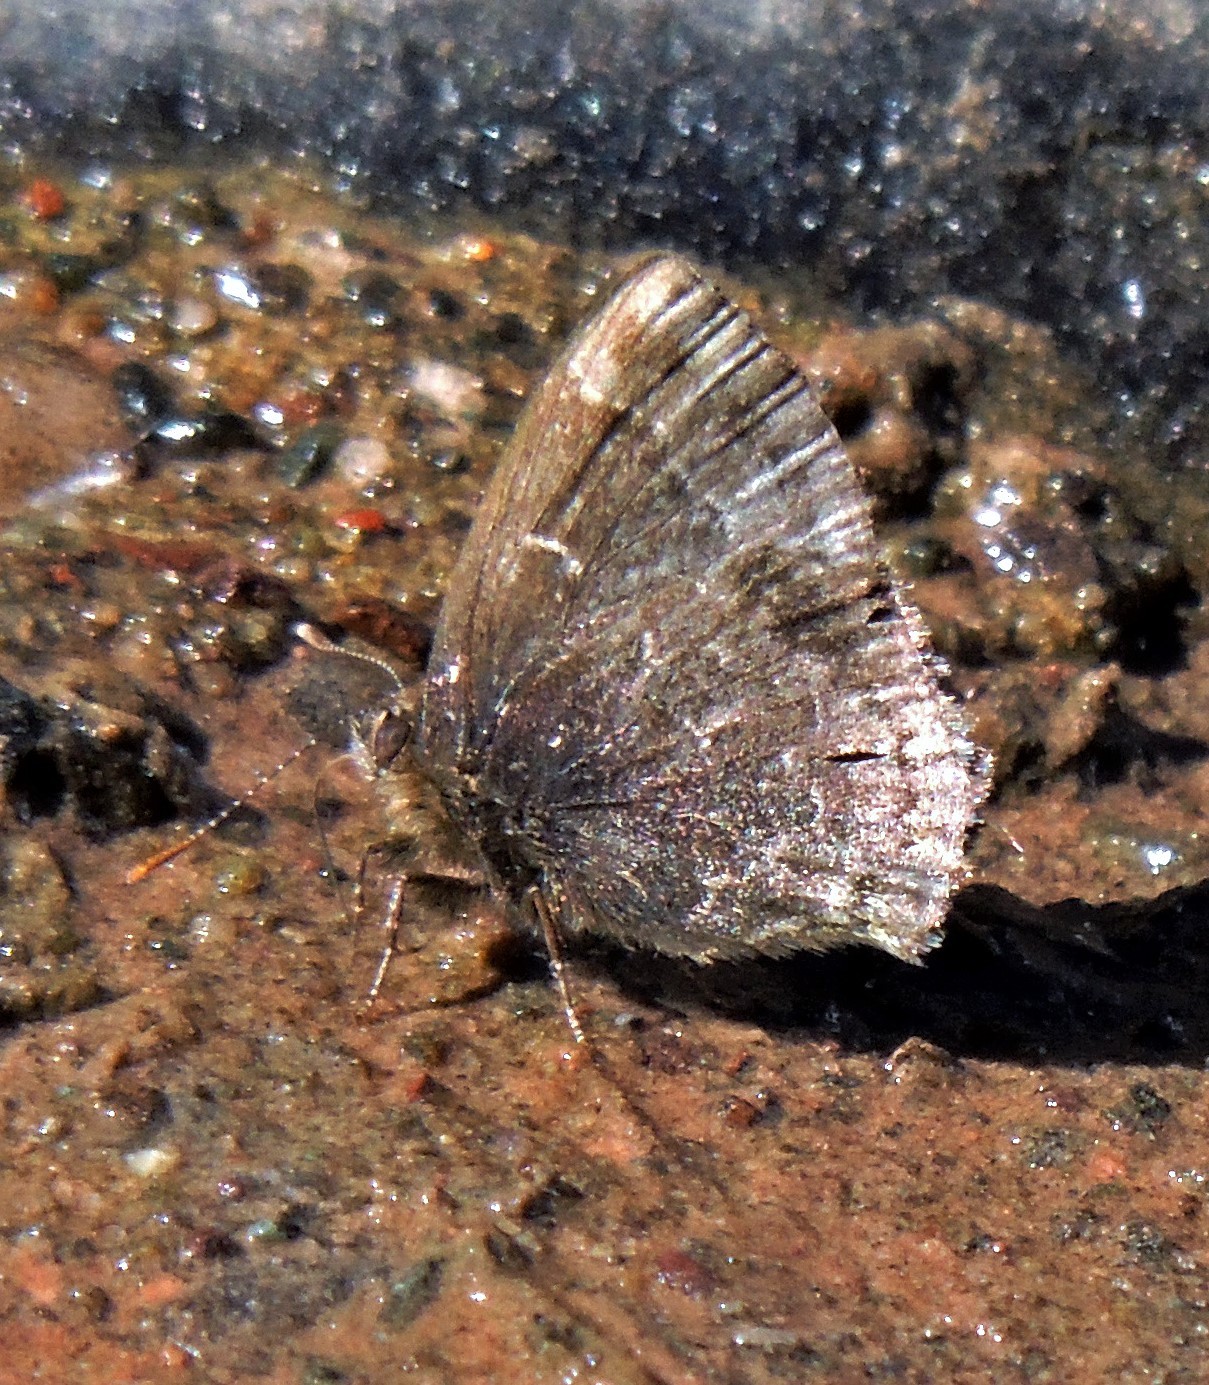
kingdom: Animalia
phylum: Arthropoda
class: Insecta
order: Lepidoptera
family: Lycaenidae
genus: Ocaria
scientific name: Ocaria ocrisia
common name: Black hairstreak
